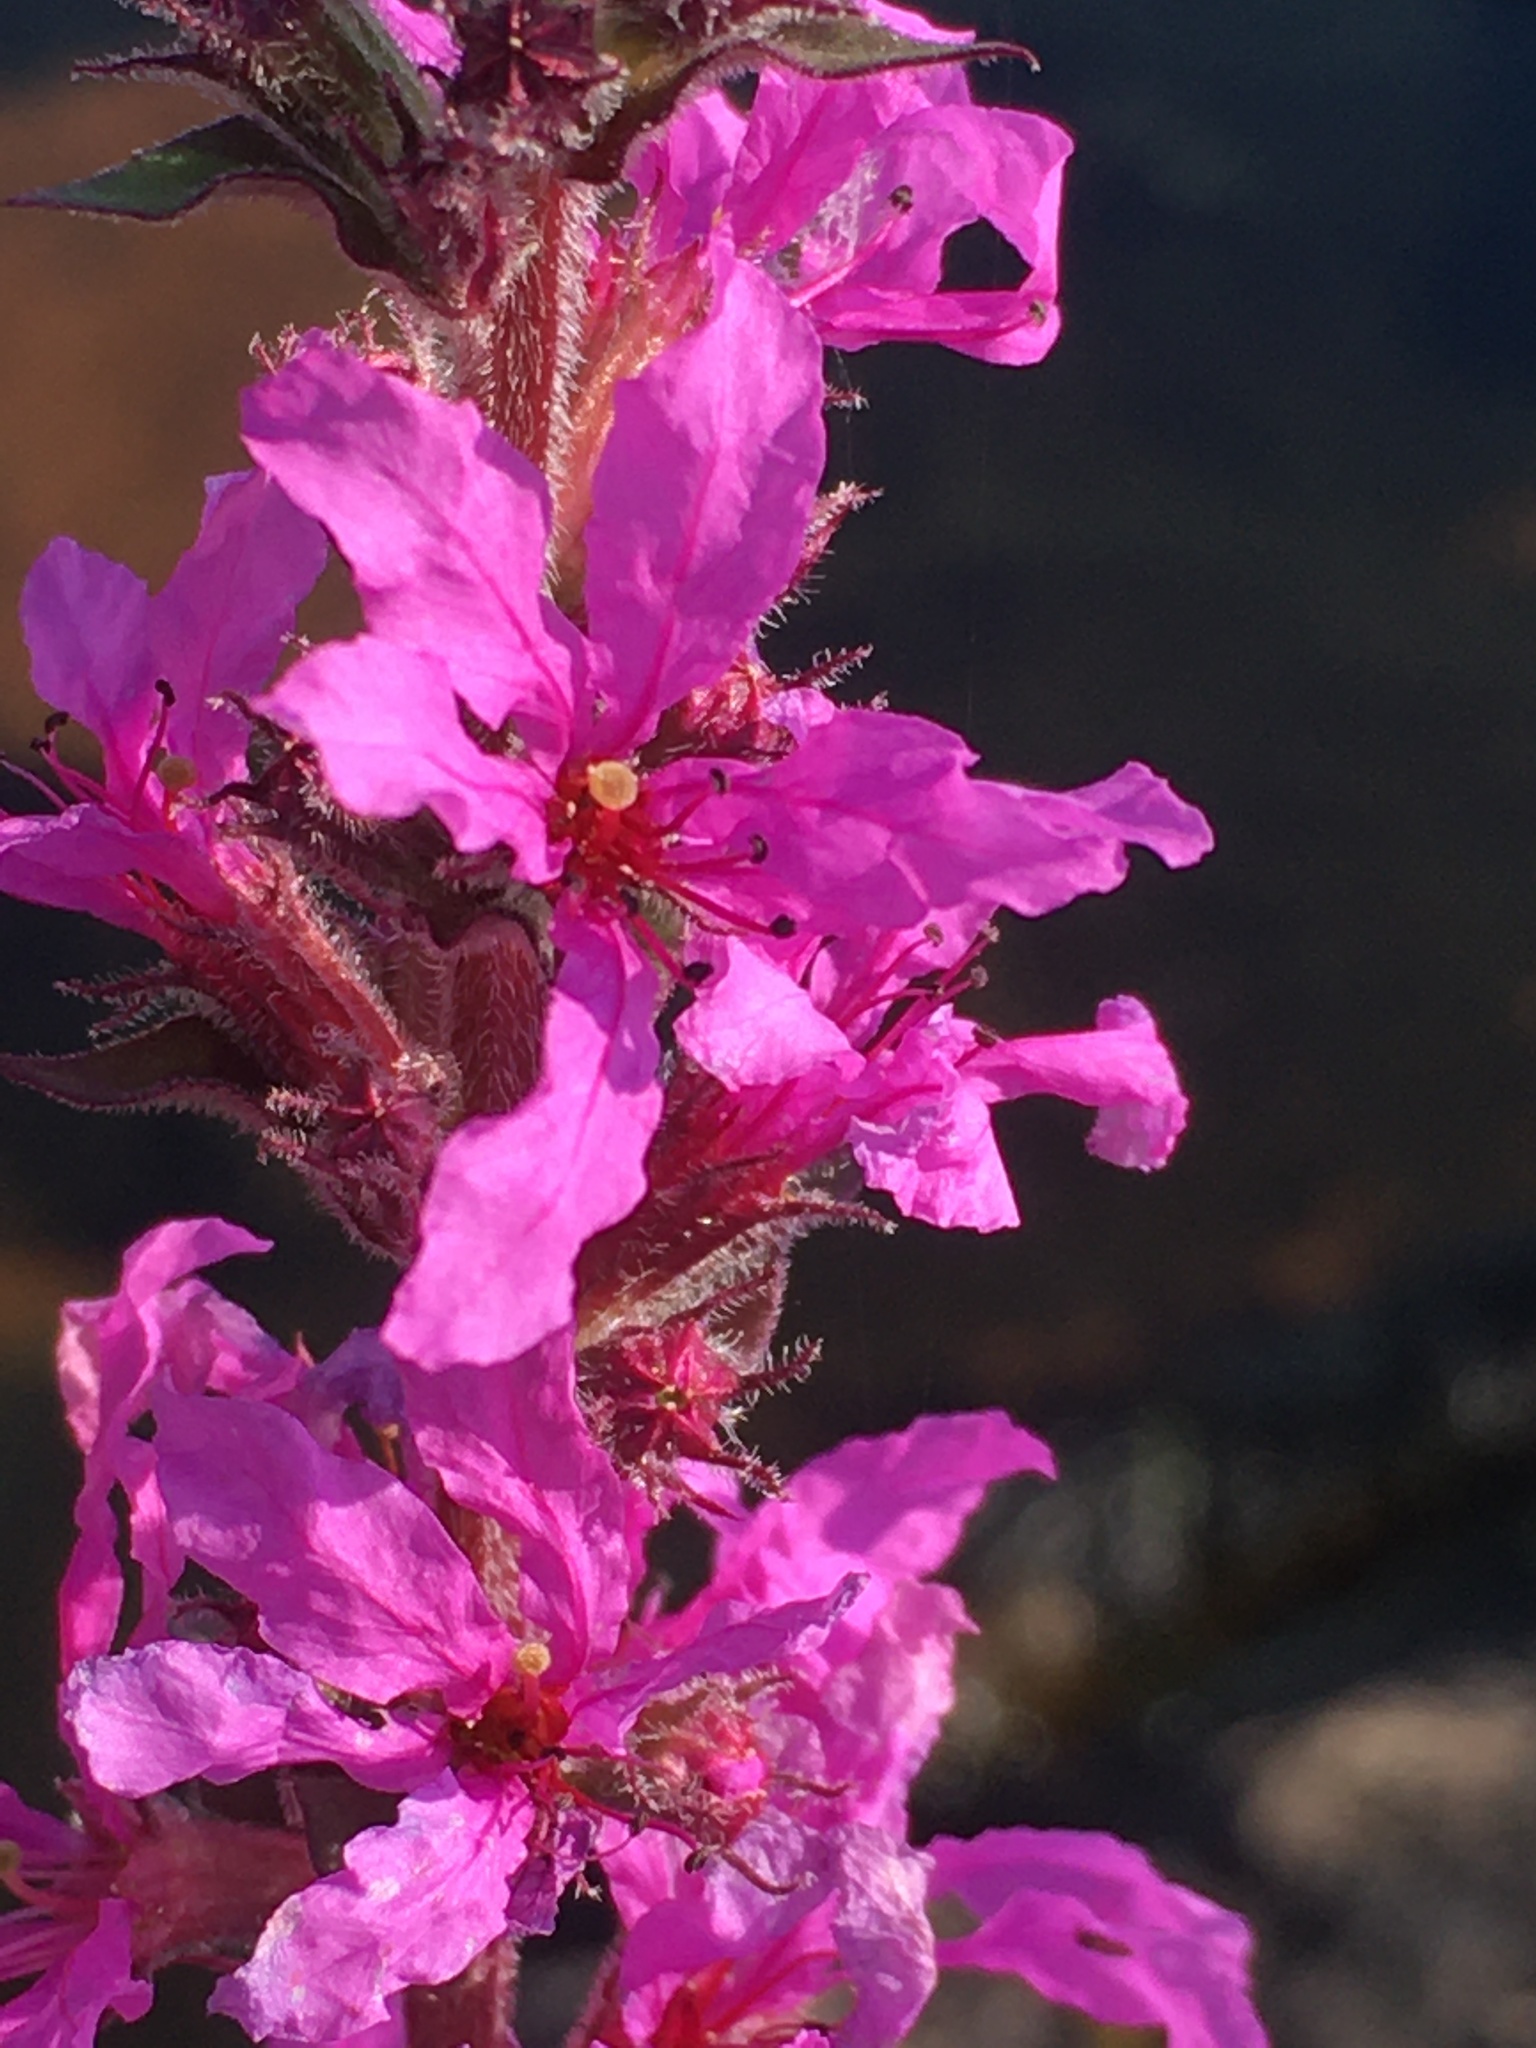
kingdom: Plantae
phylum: Tracheophyta
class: Magnoliopsida
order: Myrtales
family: Lythraceae
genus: Lythrum
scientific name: Lythrum salicaria
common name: Purple loosestrife
